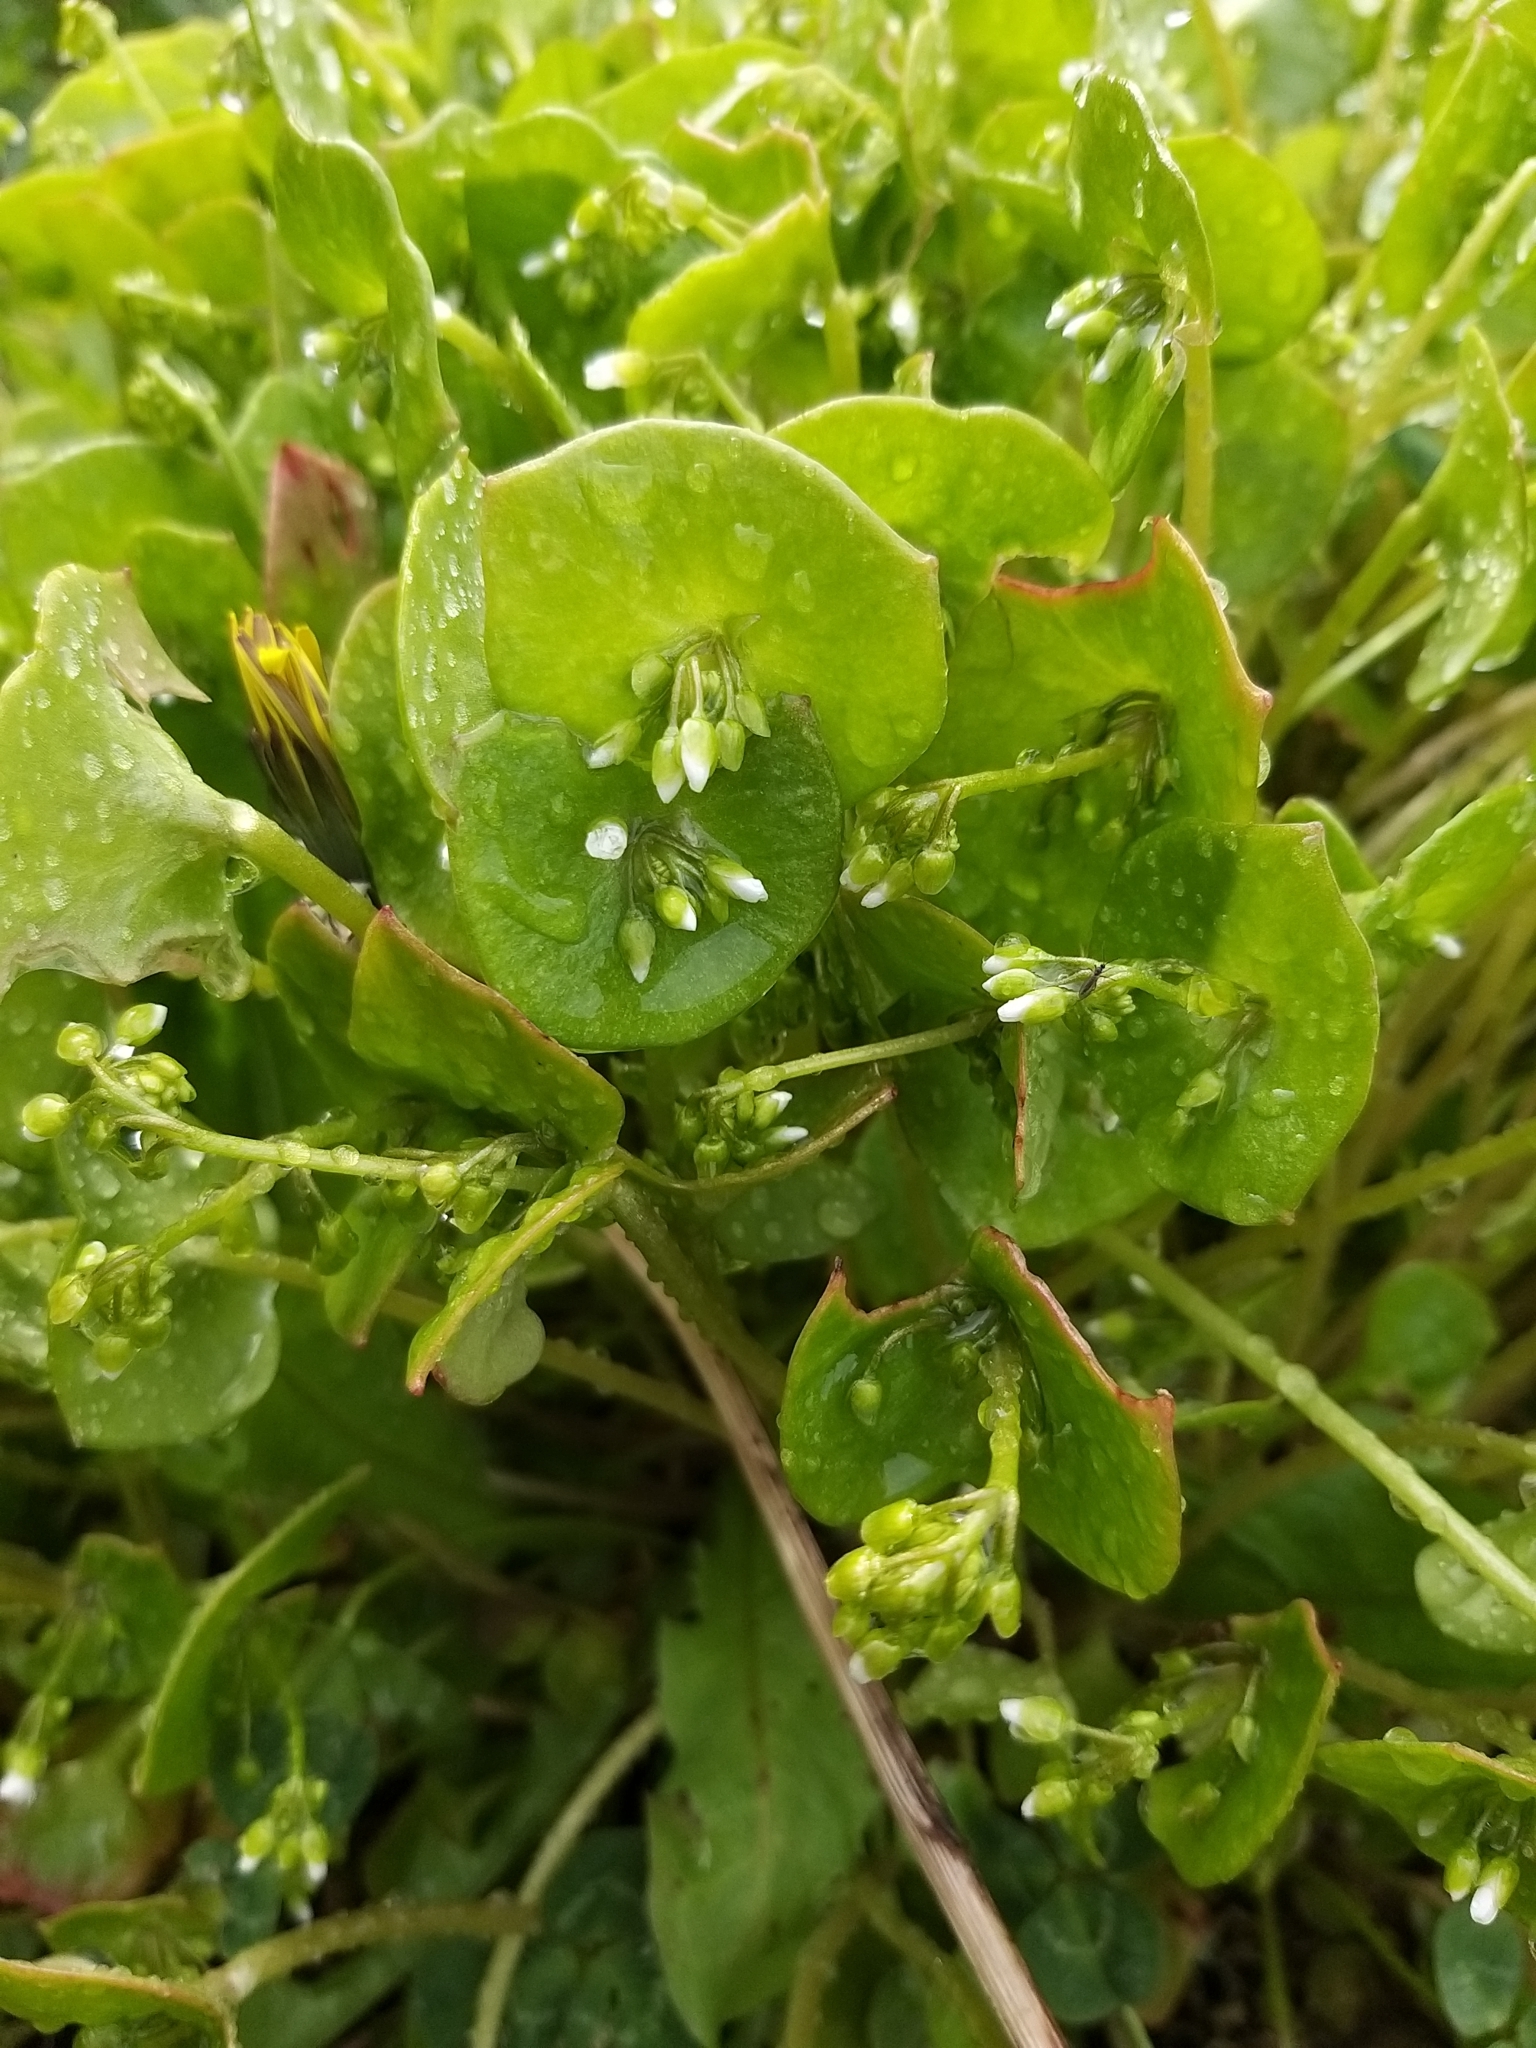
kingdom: Plantae
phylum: Tracheophyta
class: Magnoliopsida
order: Caryophyllales
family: Montiaceae
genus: Claytonia
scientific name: Claytonia perfoliata
